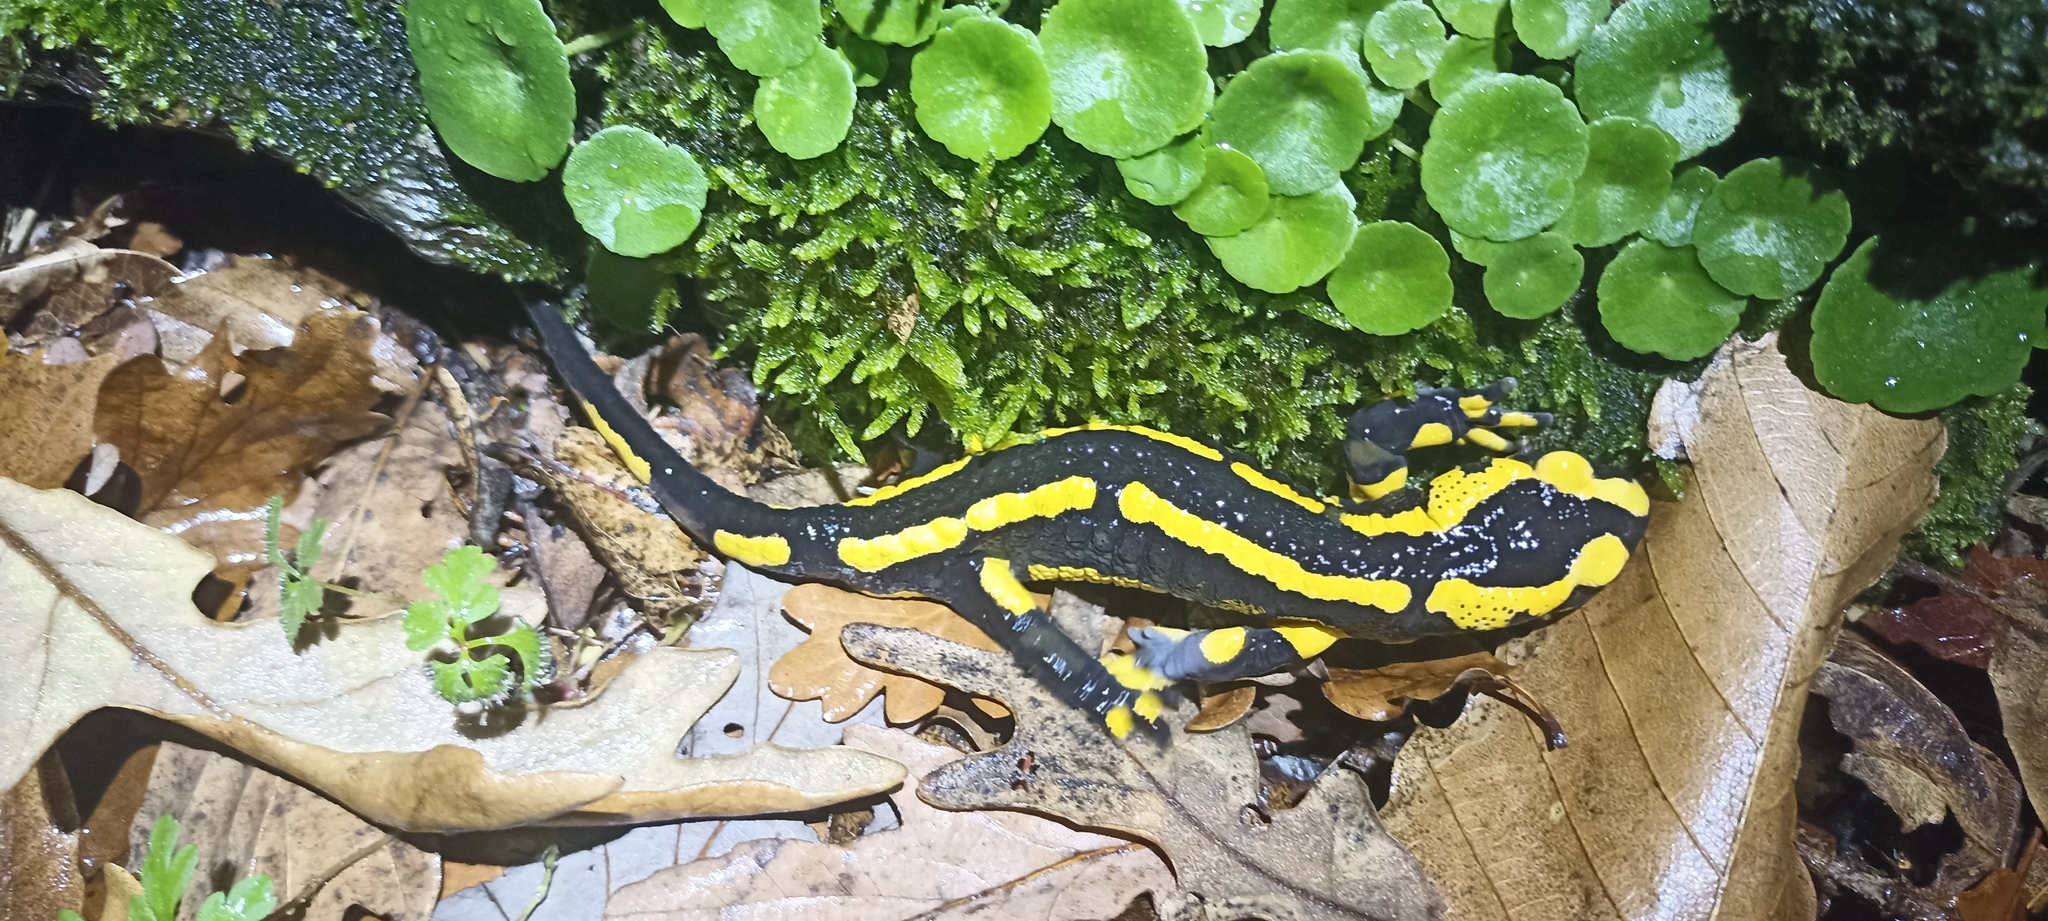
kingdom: Animalia
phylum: Chordata
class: Amphibia
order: Caudata
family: Salamandridae
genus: Salamandra
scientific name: Salamandra salamandra
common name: Fire salamander
